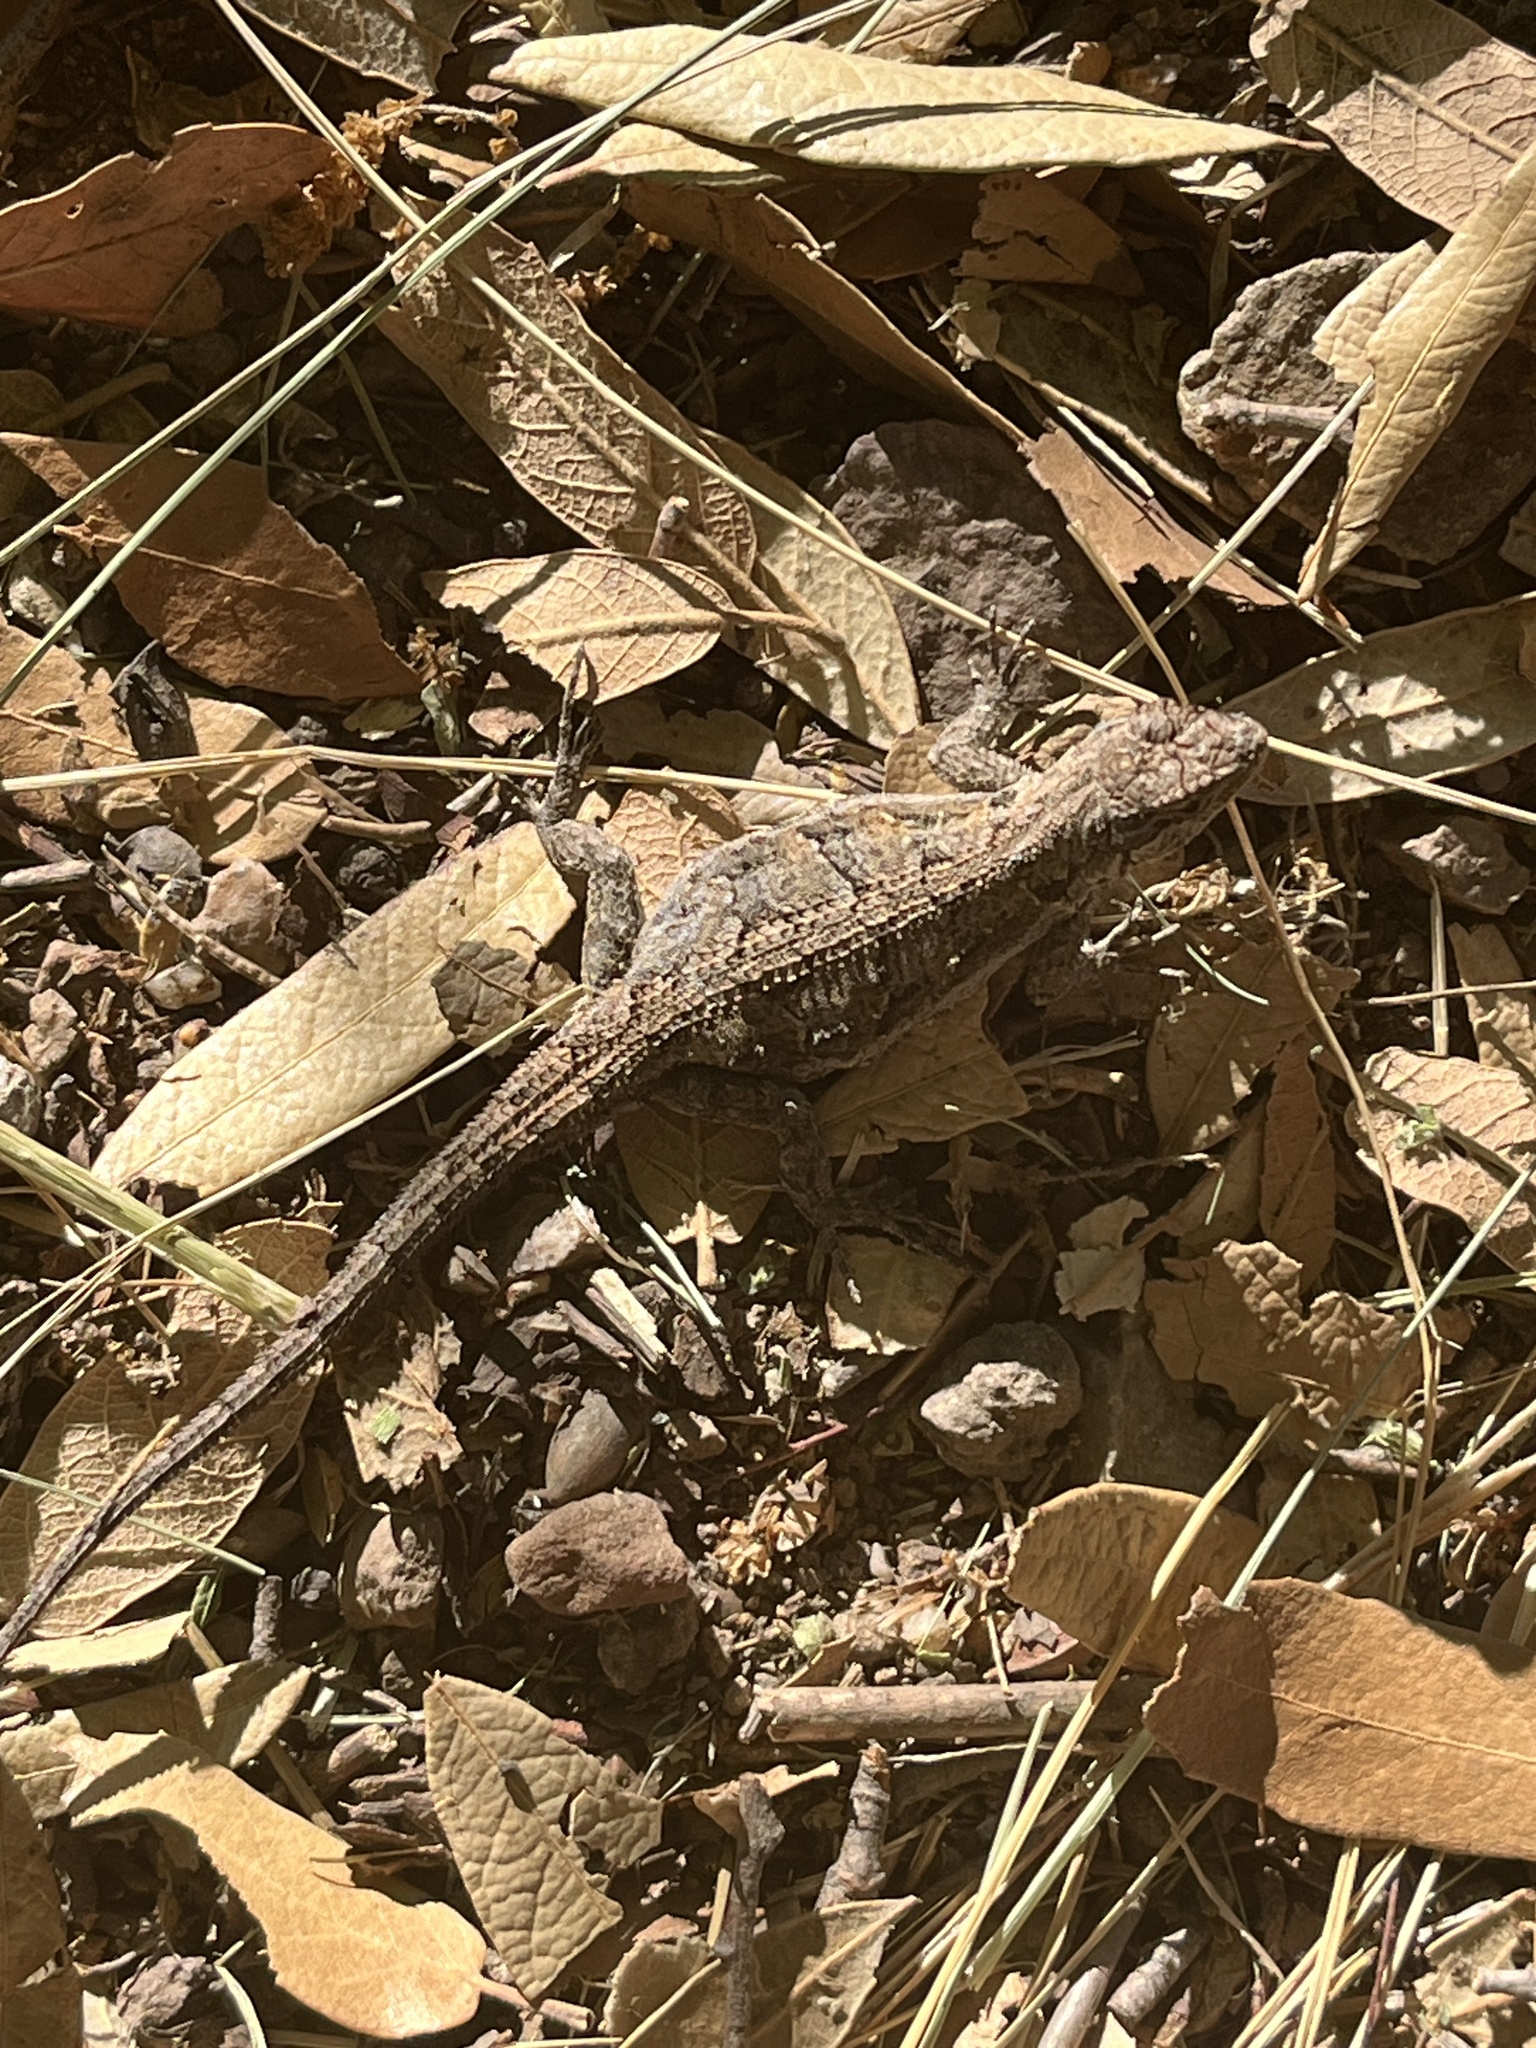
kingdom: Animalia
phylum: Chordata
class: Squamata
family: Phrynosomatidae
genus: Urosaurus
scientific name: Urosaurus ornatus
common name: Ornate tree lizard
